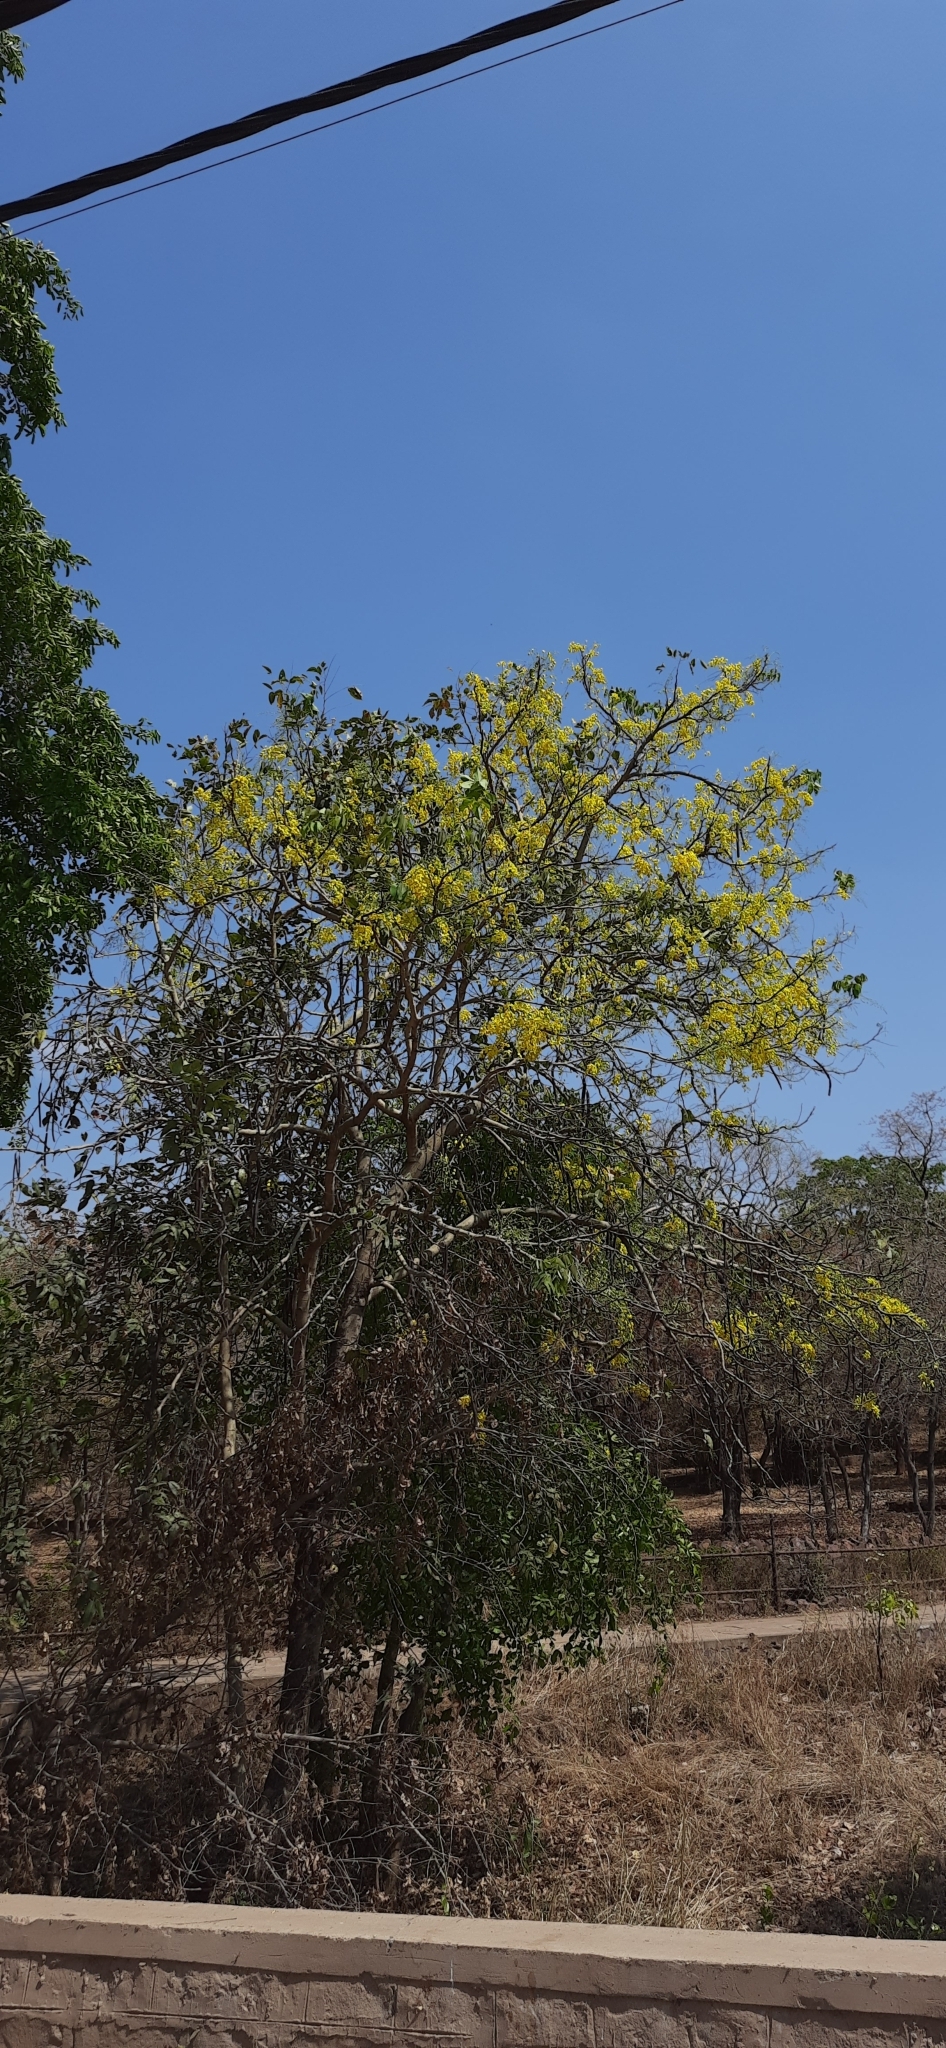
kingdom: Plantae
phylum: Tracheophyta
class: Magnoliopsida
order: Fabales
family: Fabaceae
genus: Cassia
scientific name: Cassia fistula
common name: Golden shower
